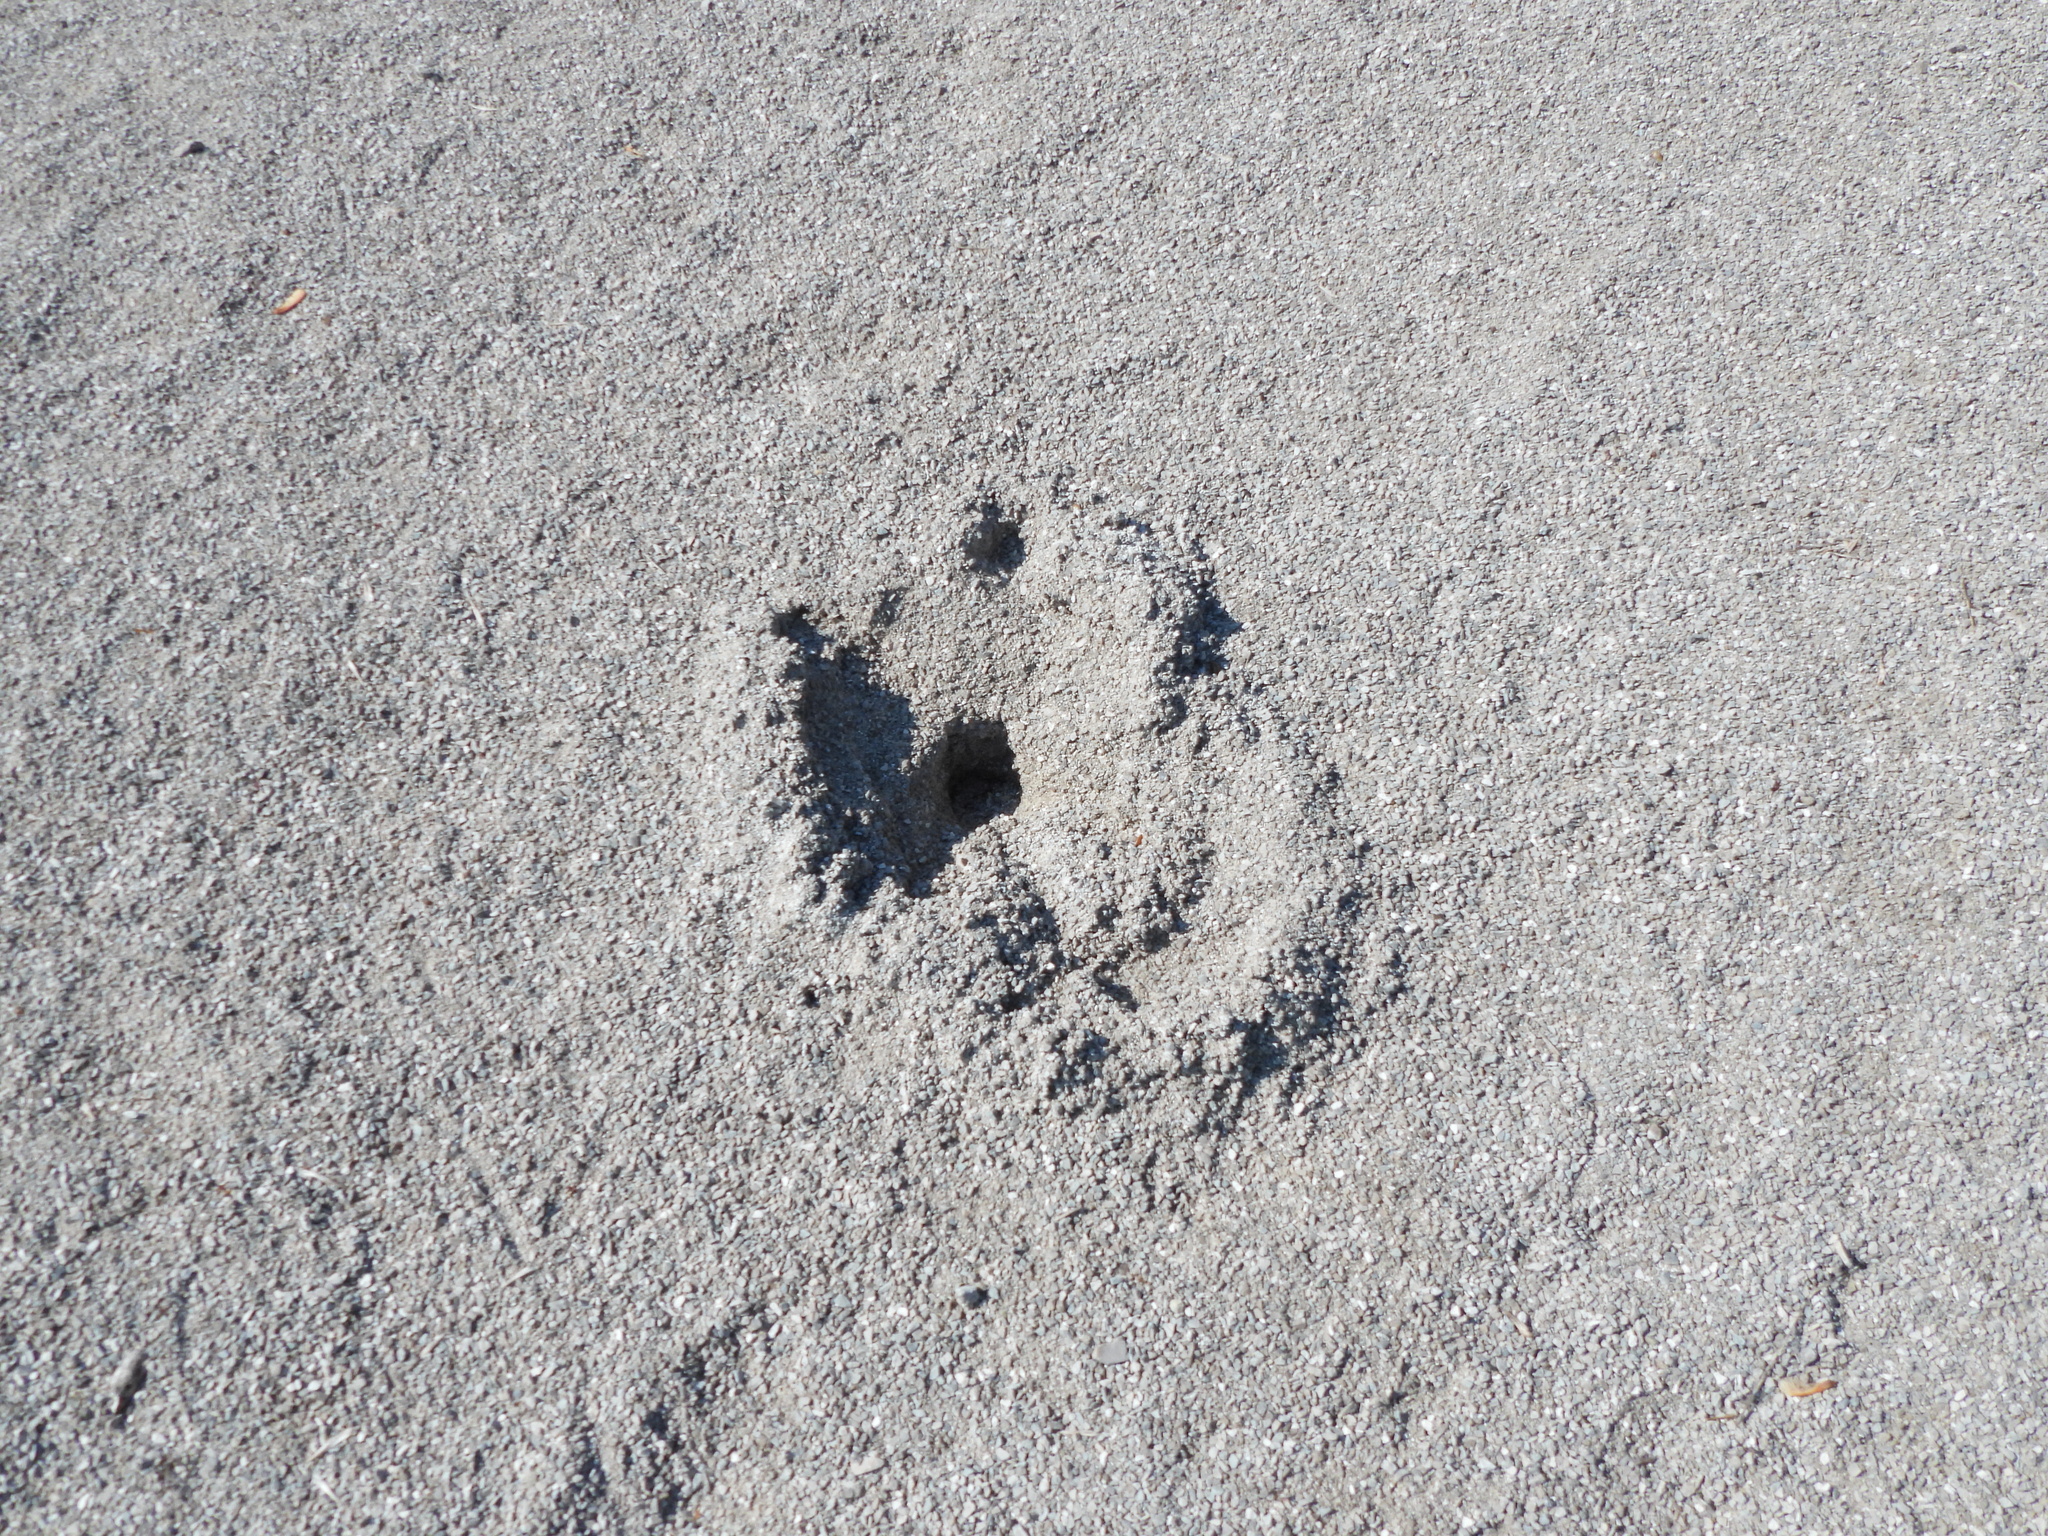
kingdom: Animalia
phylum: Chordata
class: Testudines
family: Chelydridae
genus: Chelydra
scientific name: Chelydra serpentina
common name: Common snapping turtle
